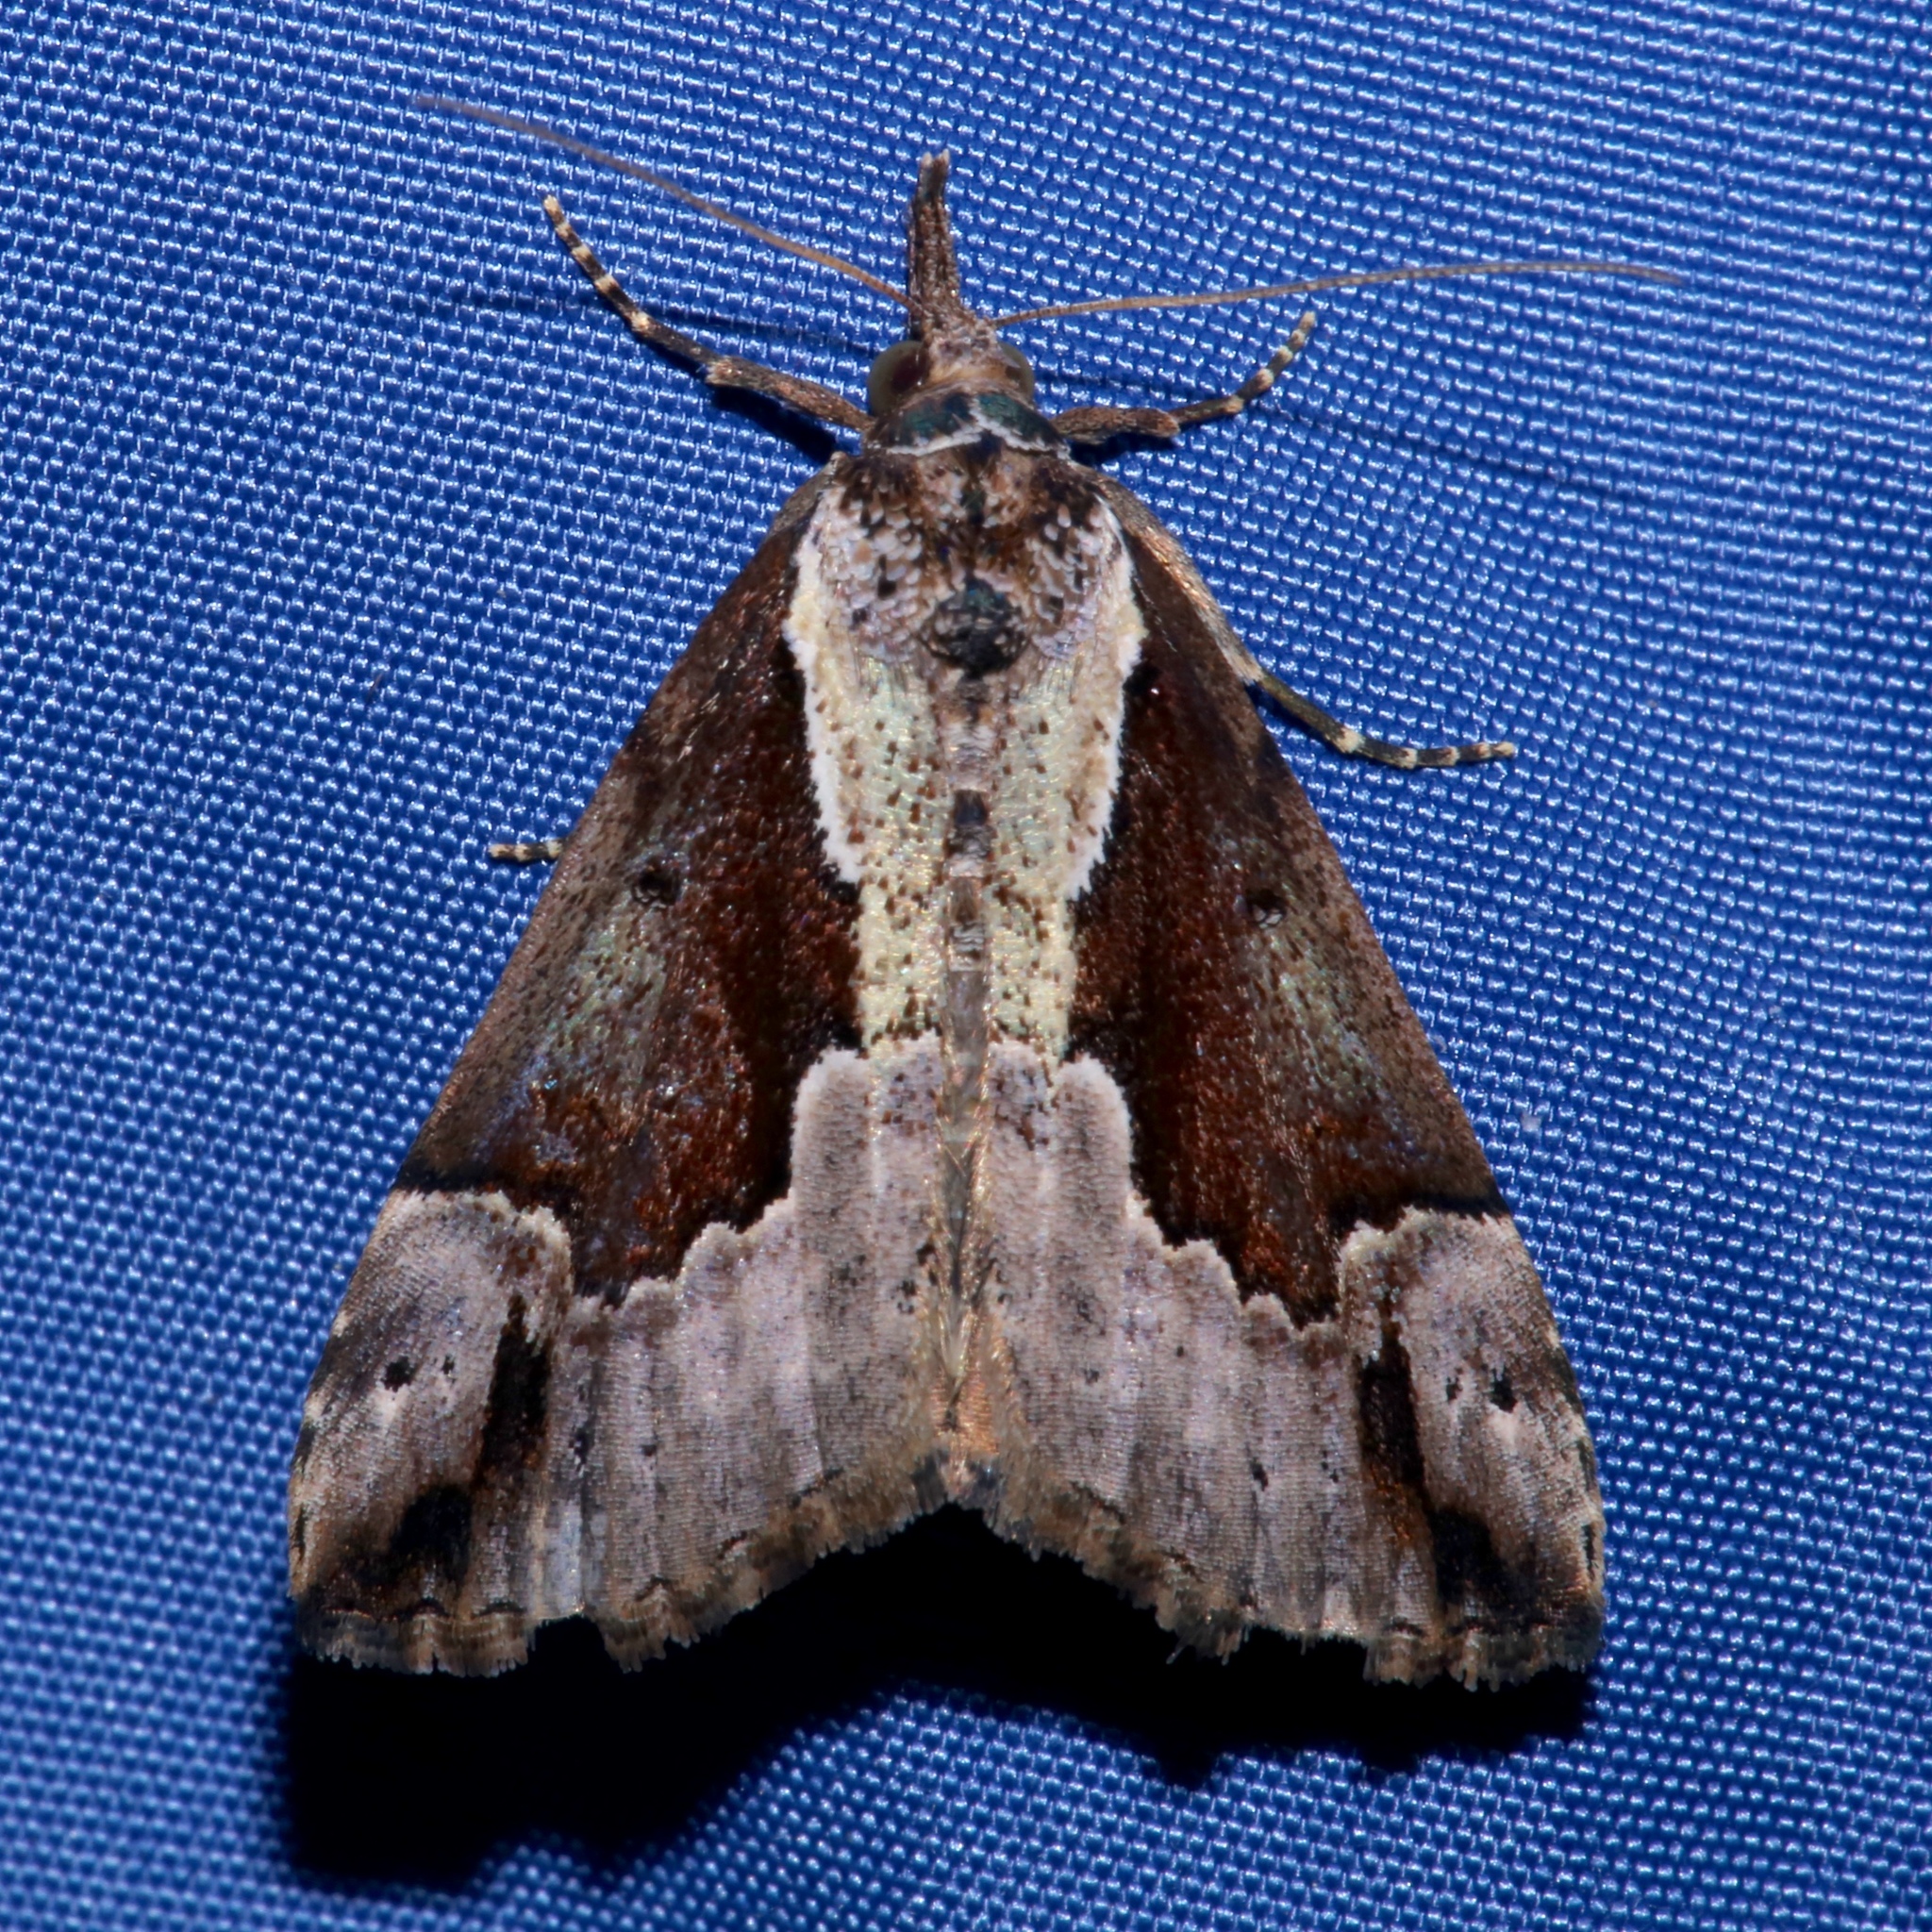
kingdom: Animalia
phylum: Arthropoda
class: Insecta
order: Lepidoptera
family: Erebidae
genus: Hypena
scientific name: Hypena baltimoralis
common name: Baltimore snout
